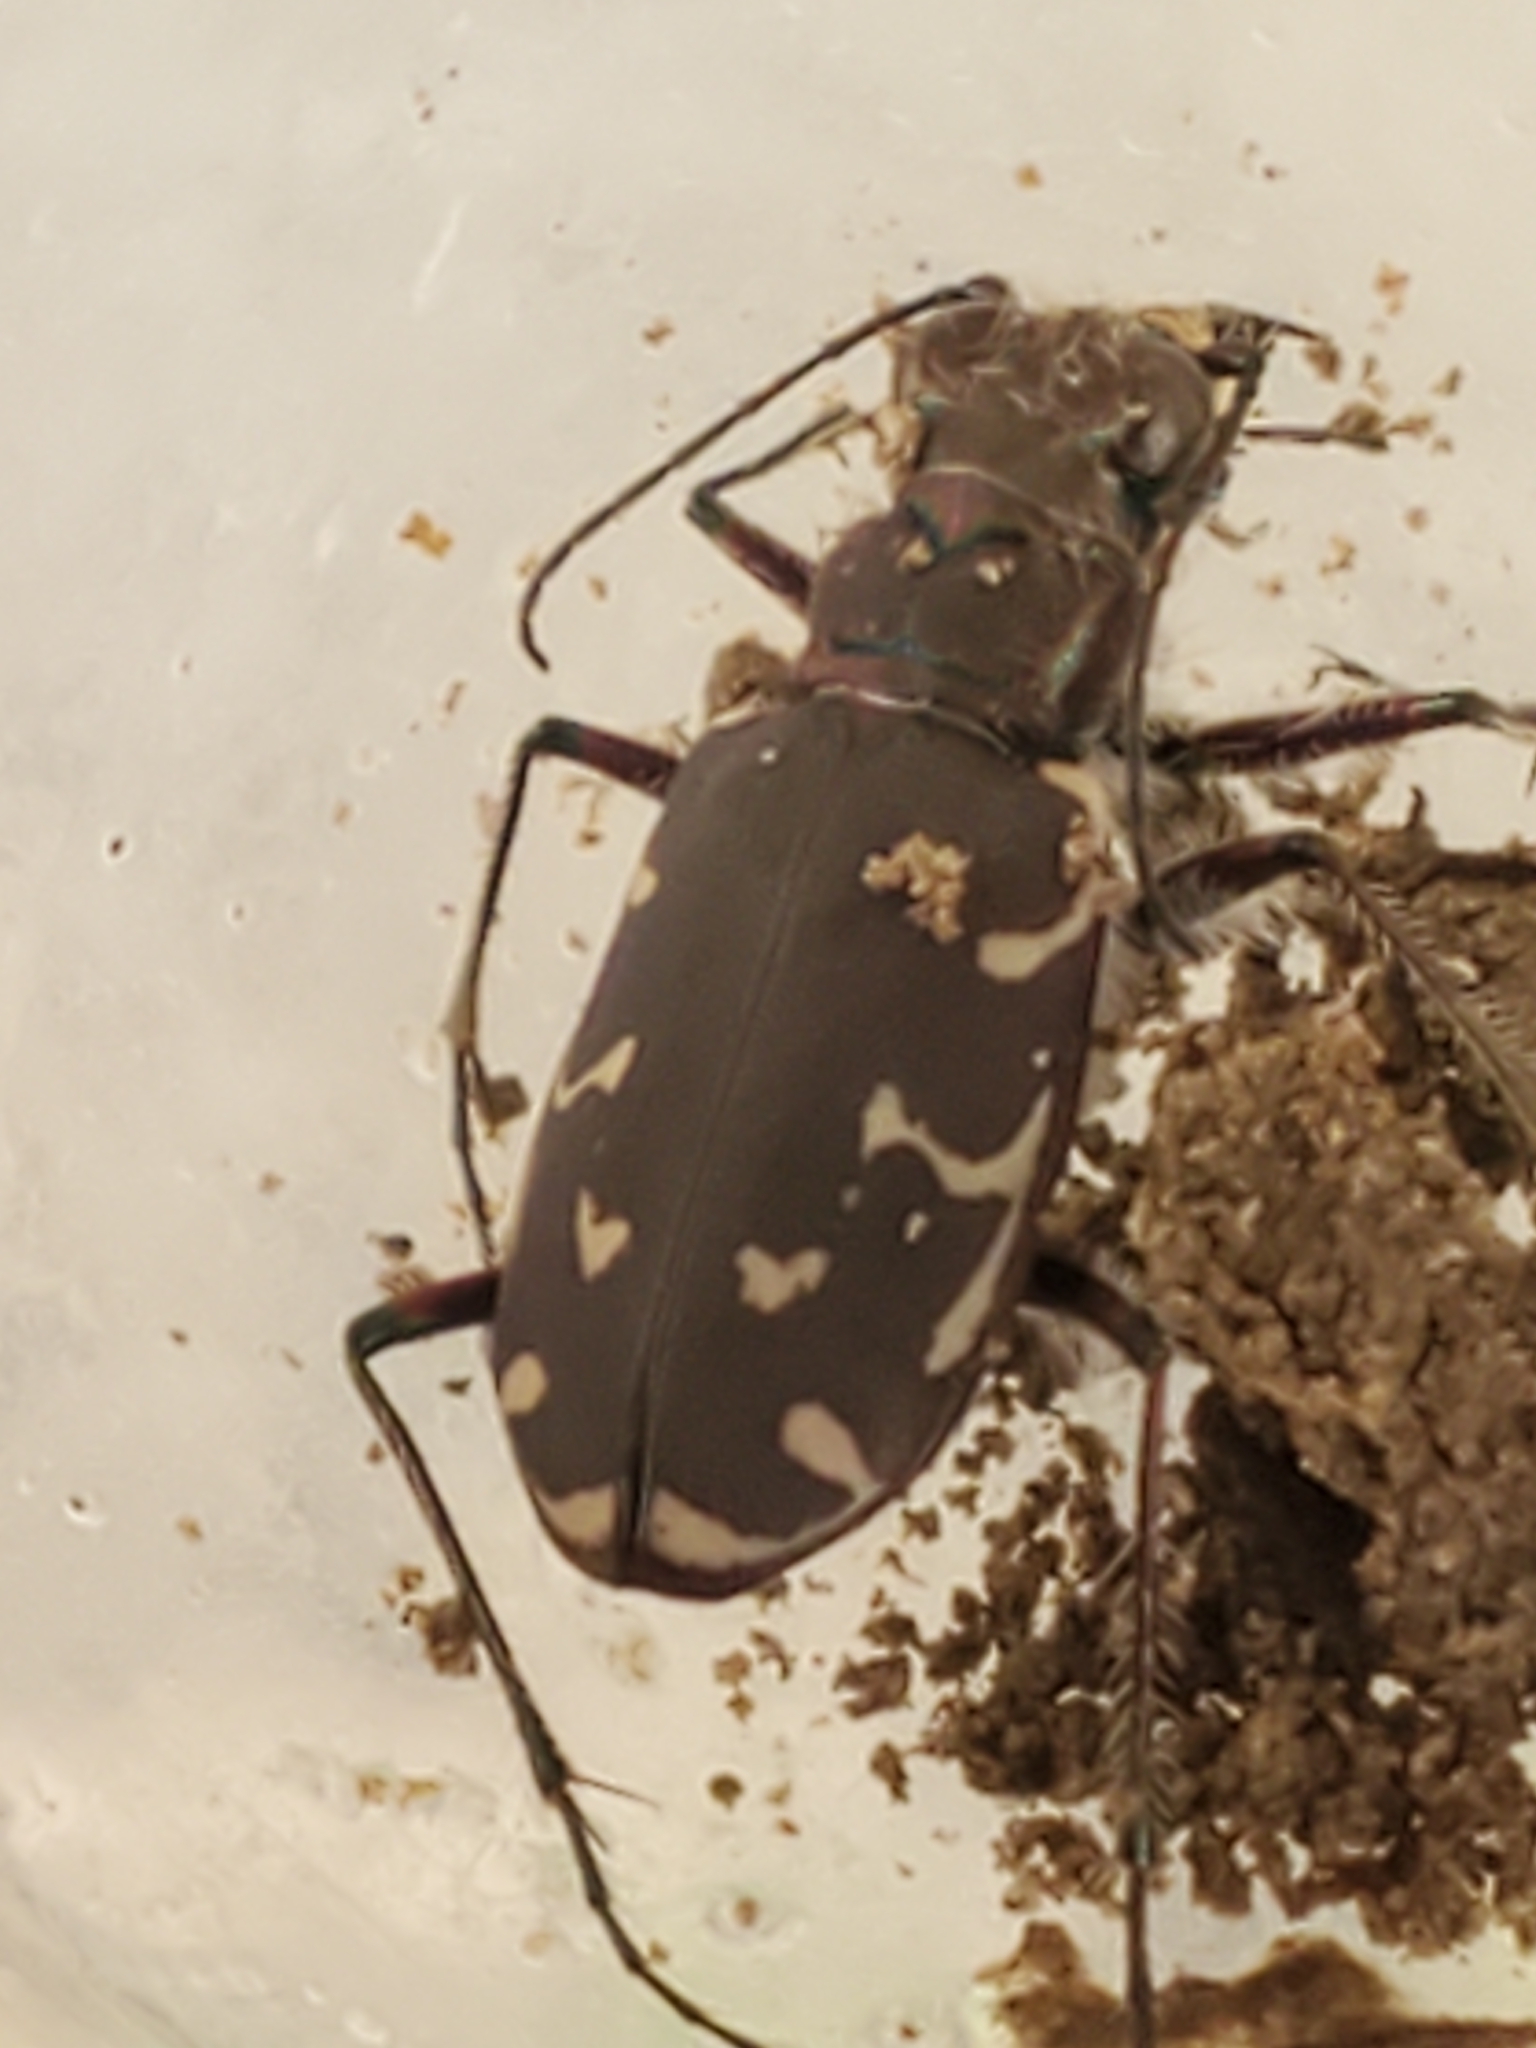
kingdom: Animalia
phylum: Arthropoda
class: Insecta
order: Coleoptera
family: Carabidae
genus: Cicindela
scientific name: Cicindela duodecimguttata
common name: Twelve-spotted tiger beetle
